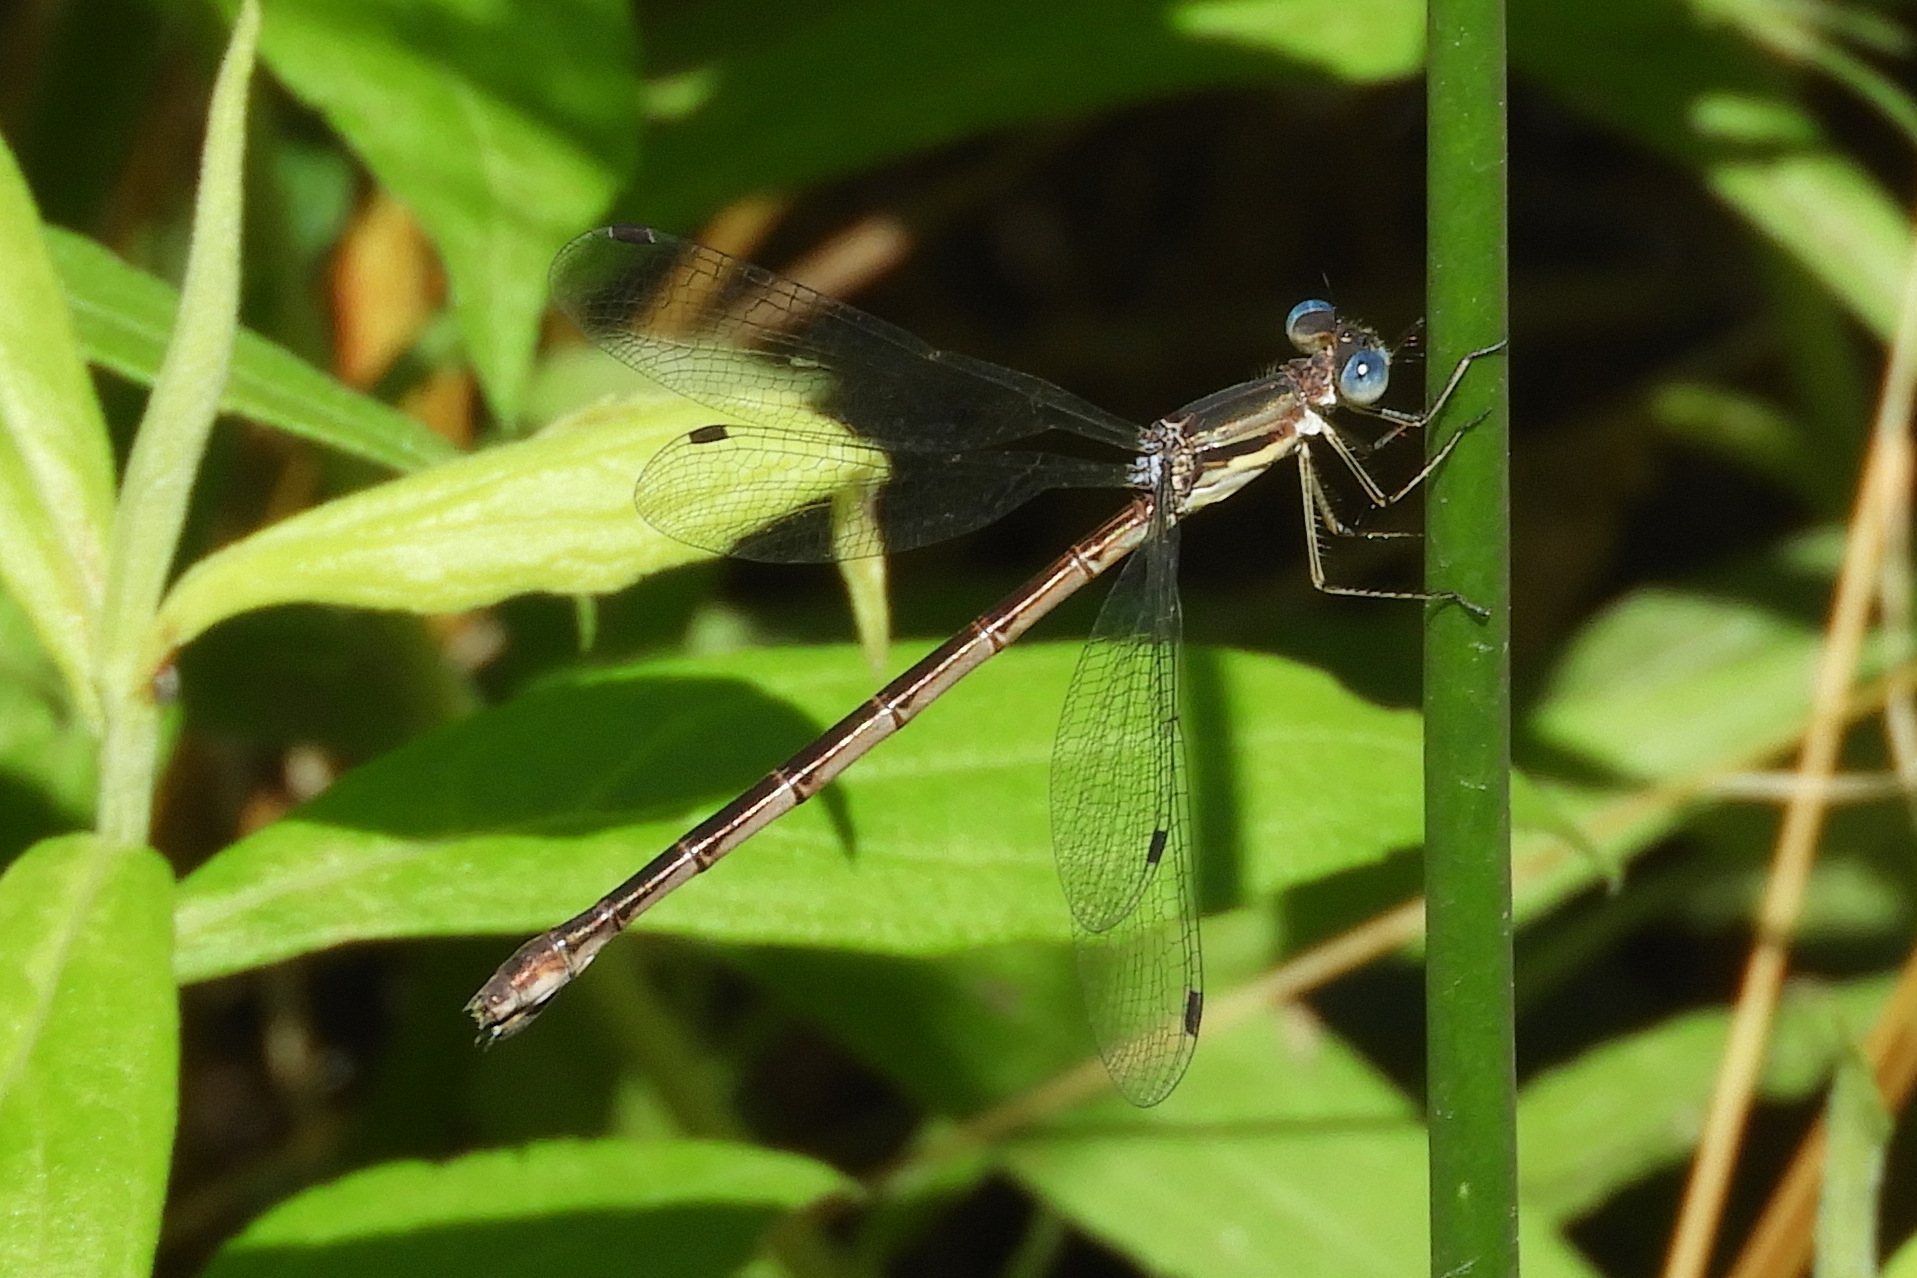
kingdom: Animalia
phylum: Arthropoda
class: Insecta
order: Odonata
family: Lestidae
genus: Lestes
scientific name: Lestes australis
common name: Southern spreadwing
